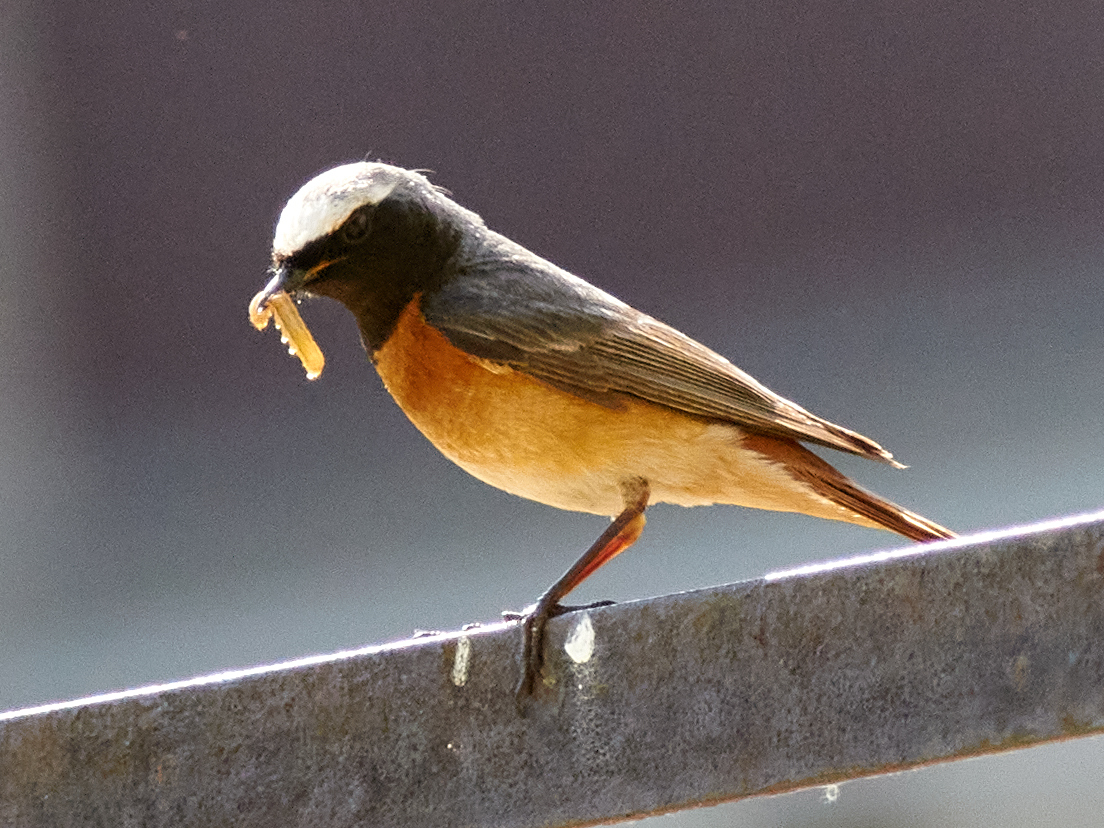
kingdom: Animalia
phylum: Chordata
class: Aves
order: Passeriformes
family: Muscicapidae
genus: Phoenicurus
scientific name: Phoenicurus phoenicurus
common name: Common redstart
